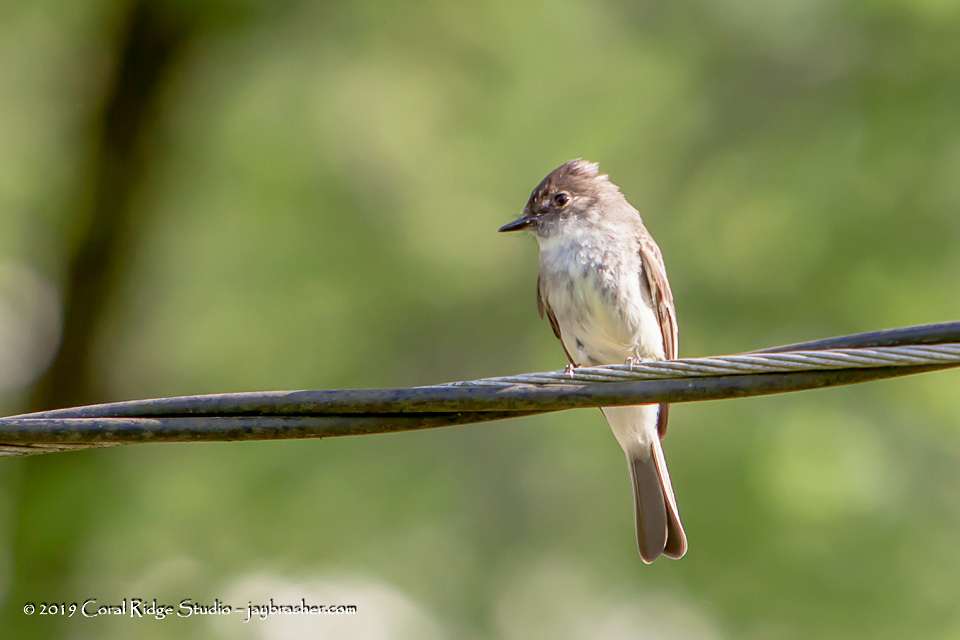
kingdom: Animalia
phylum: Chordata
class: Aves
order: Passeriformes
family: Tyrannidae
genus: Sayornis
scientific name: Sayornis phoebe
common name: Eastern phoebe
